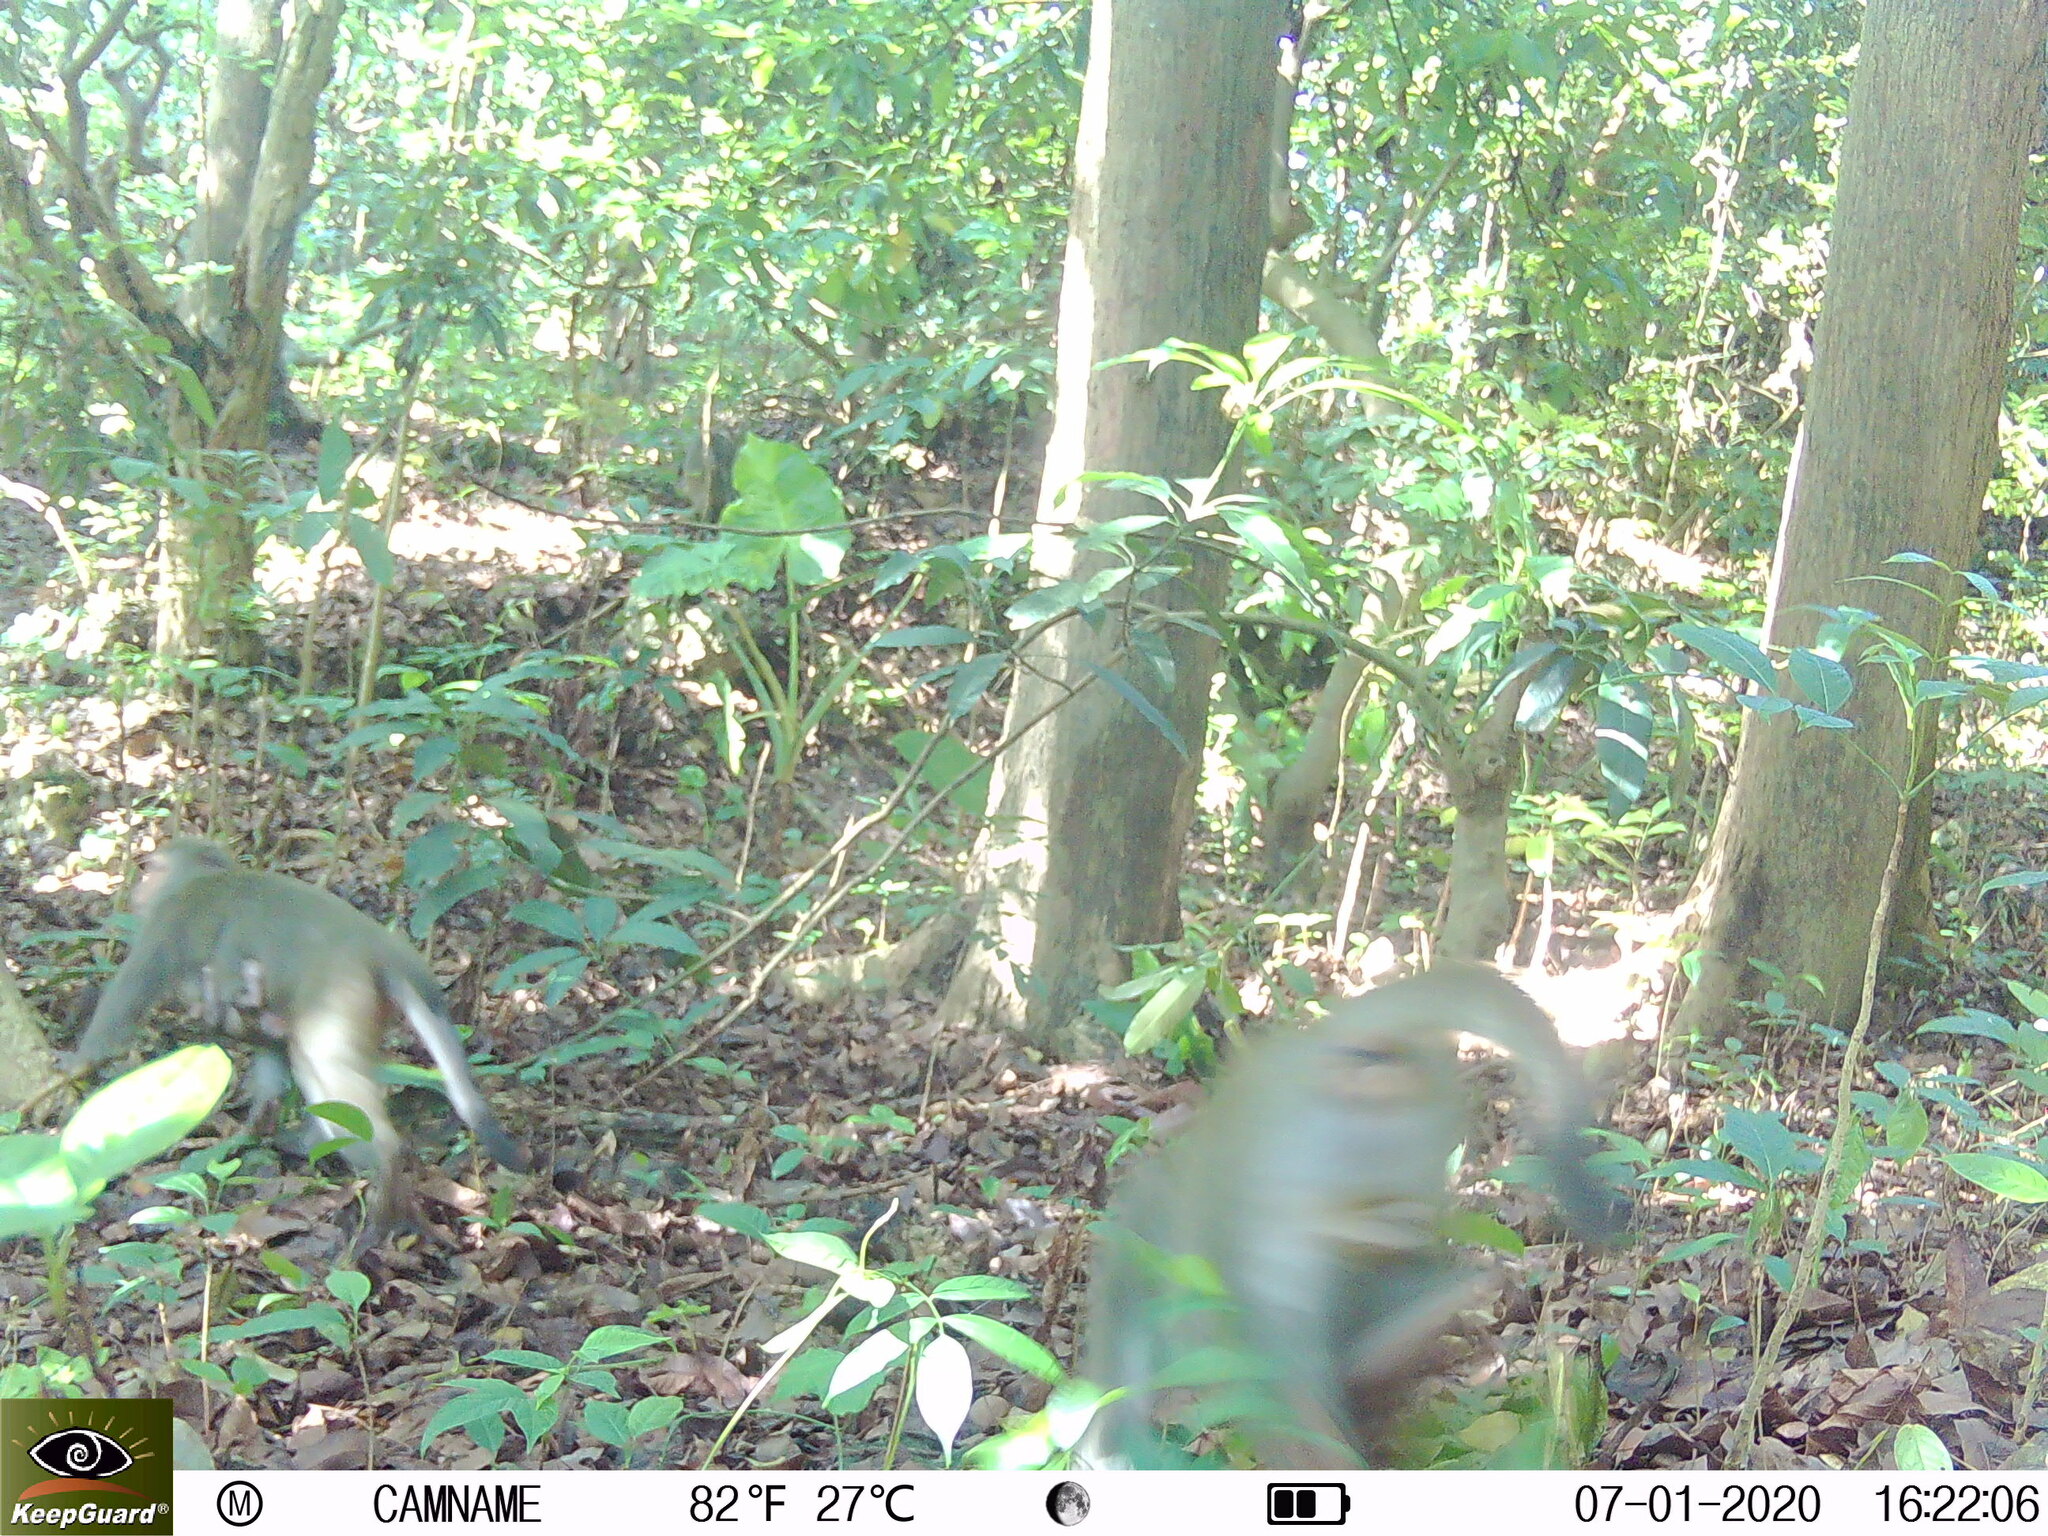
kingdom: Animalia
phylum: Chordata
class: Mammalia
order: Primates
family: Cercopithecidae
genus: Macaca
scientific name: Macaca cyclopis
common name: Formosan rock macaque
